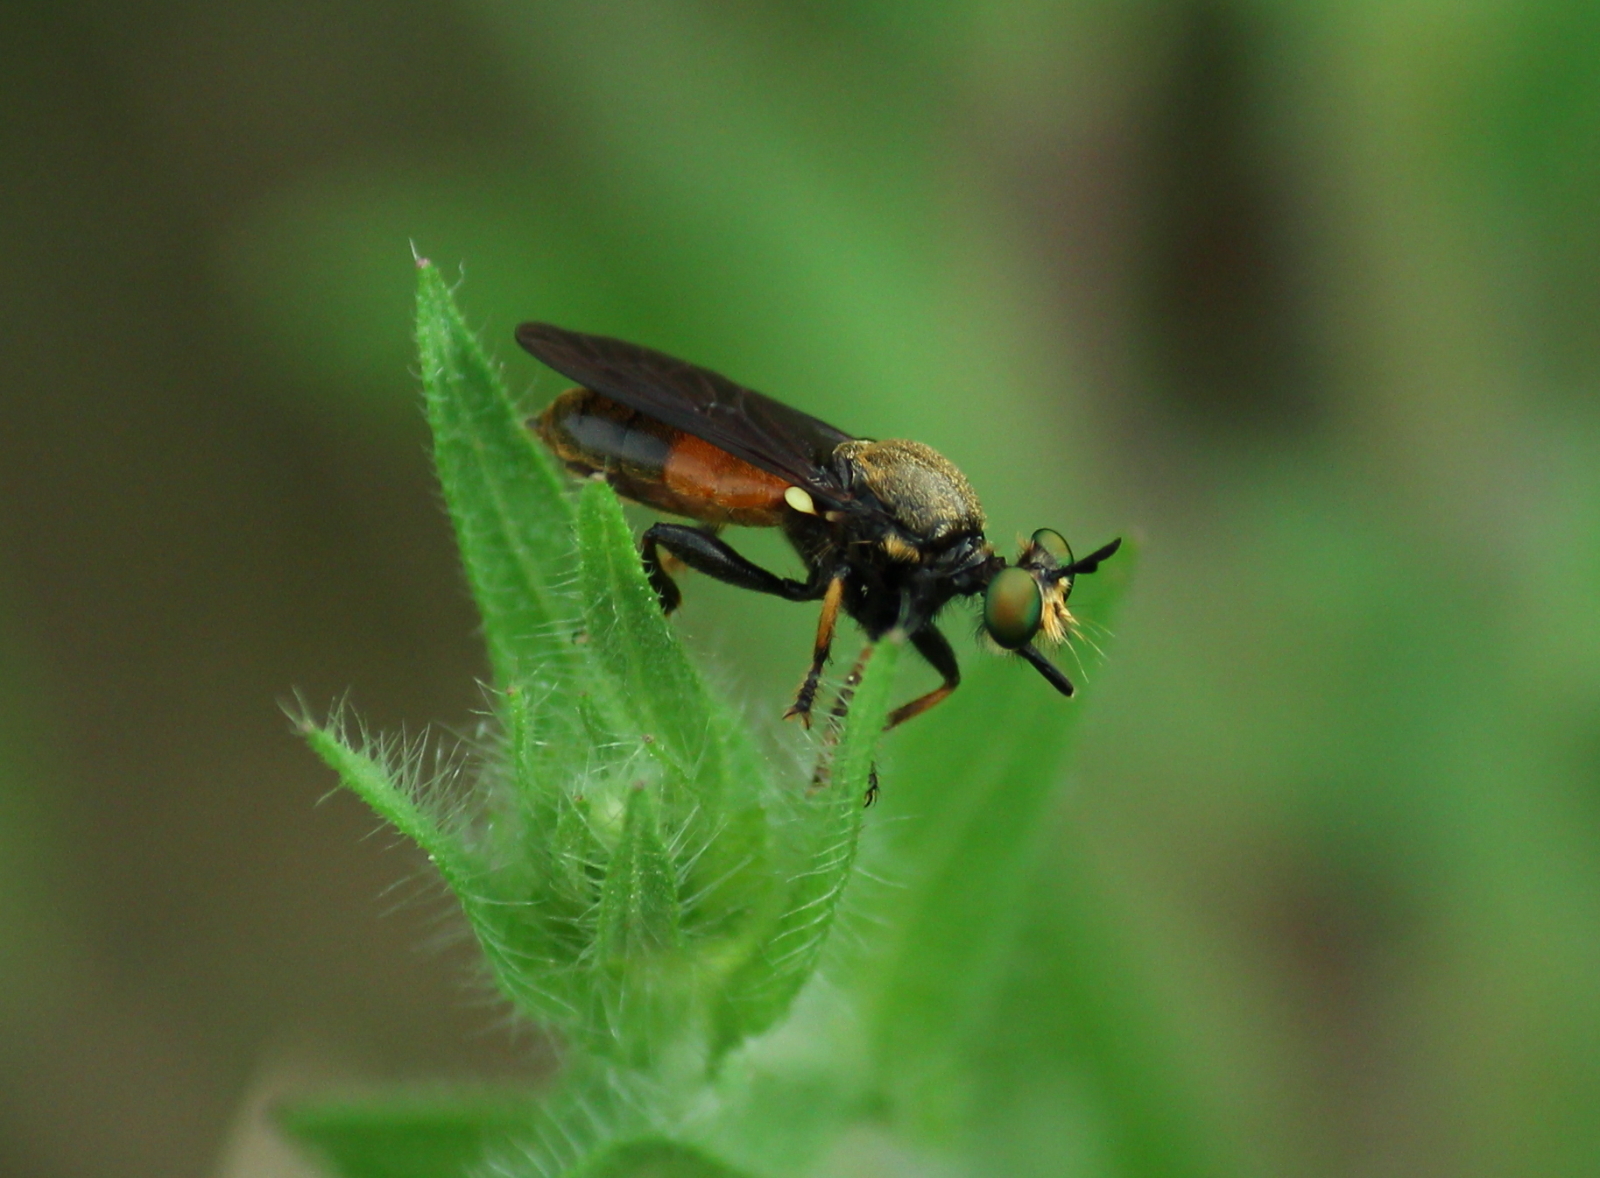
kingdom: Animalia
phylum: Arthropoda
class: Insecta
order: Diptera
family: Asilidae
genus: Lampria
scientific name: Lampria rubriventris
